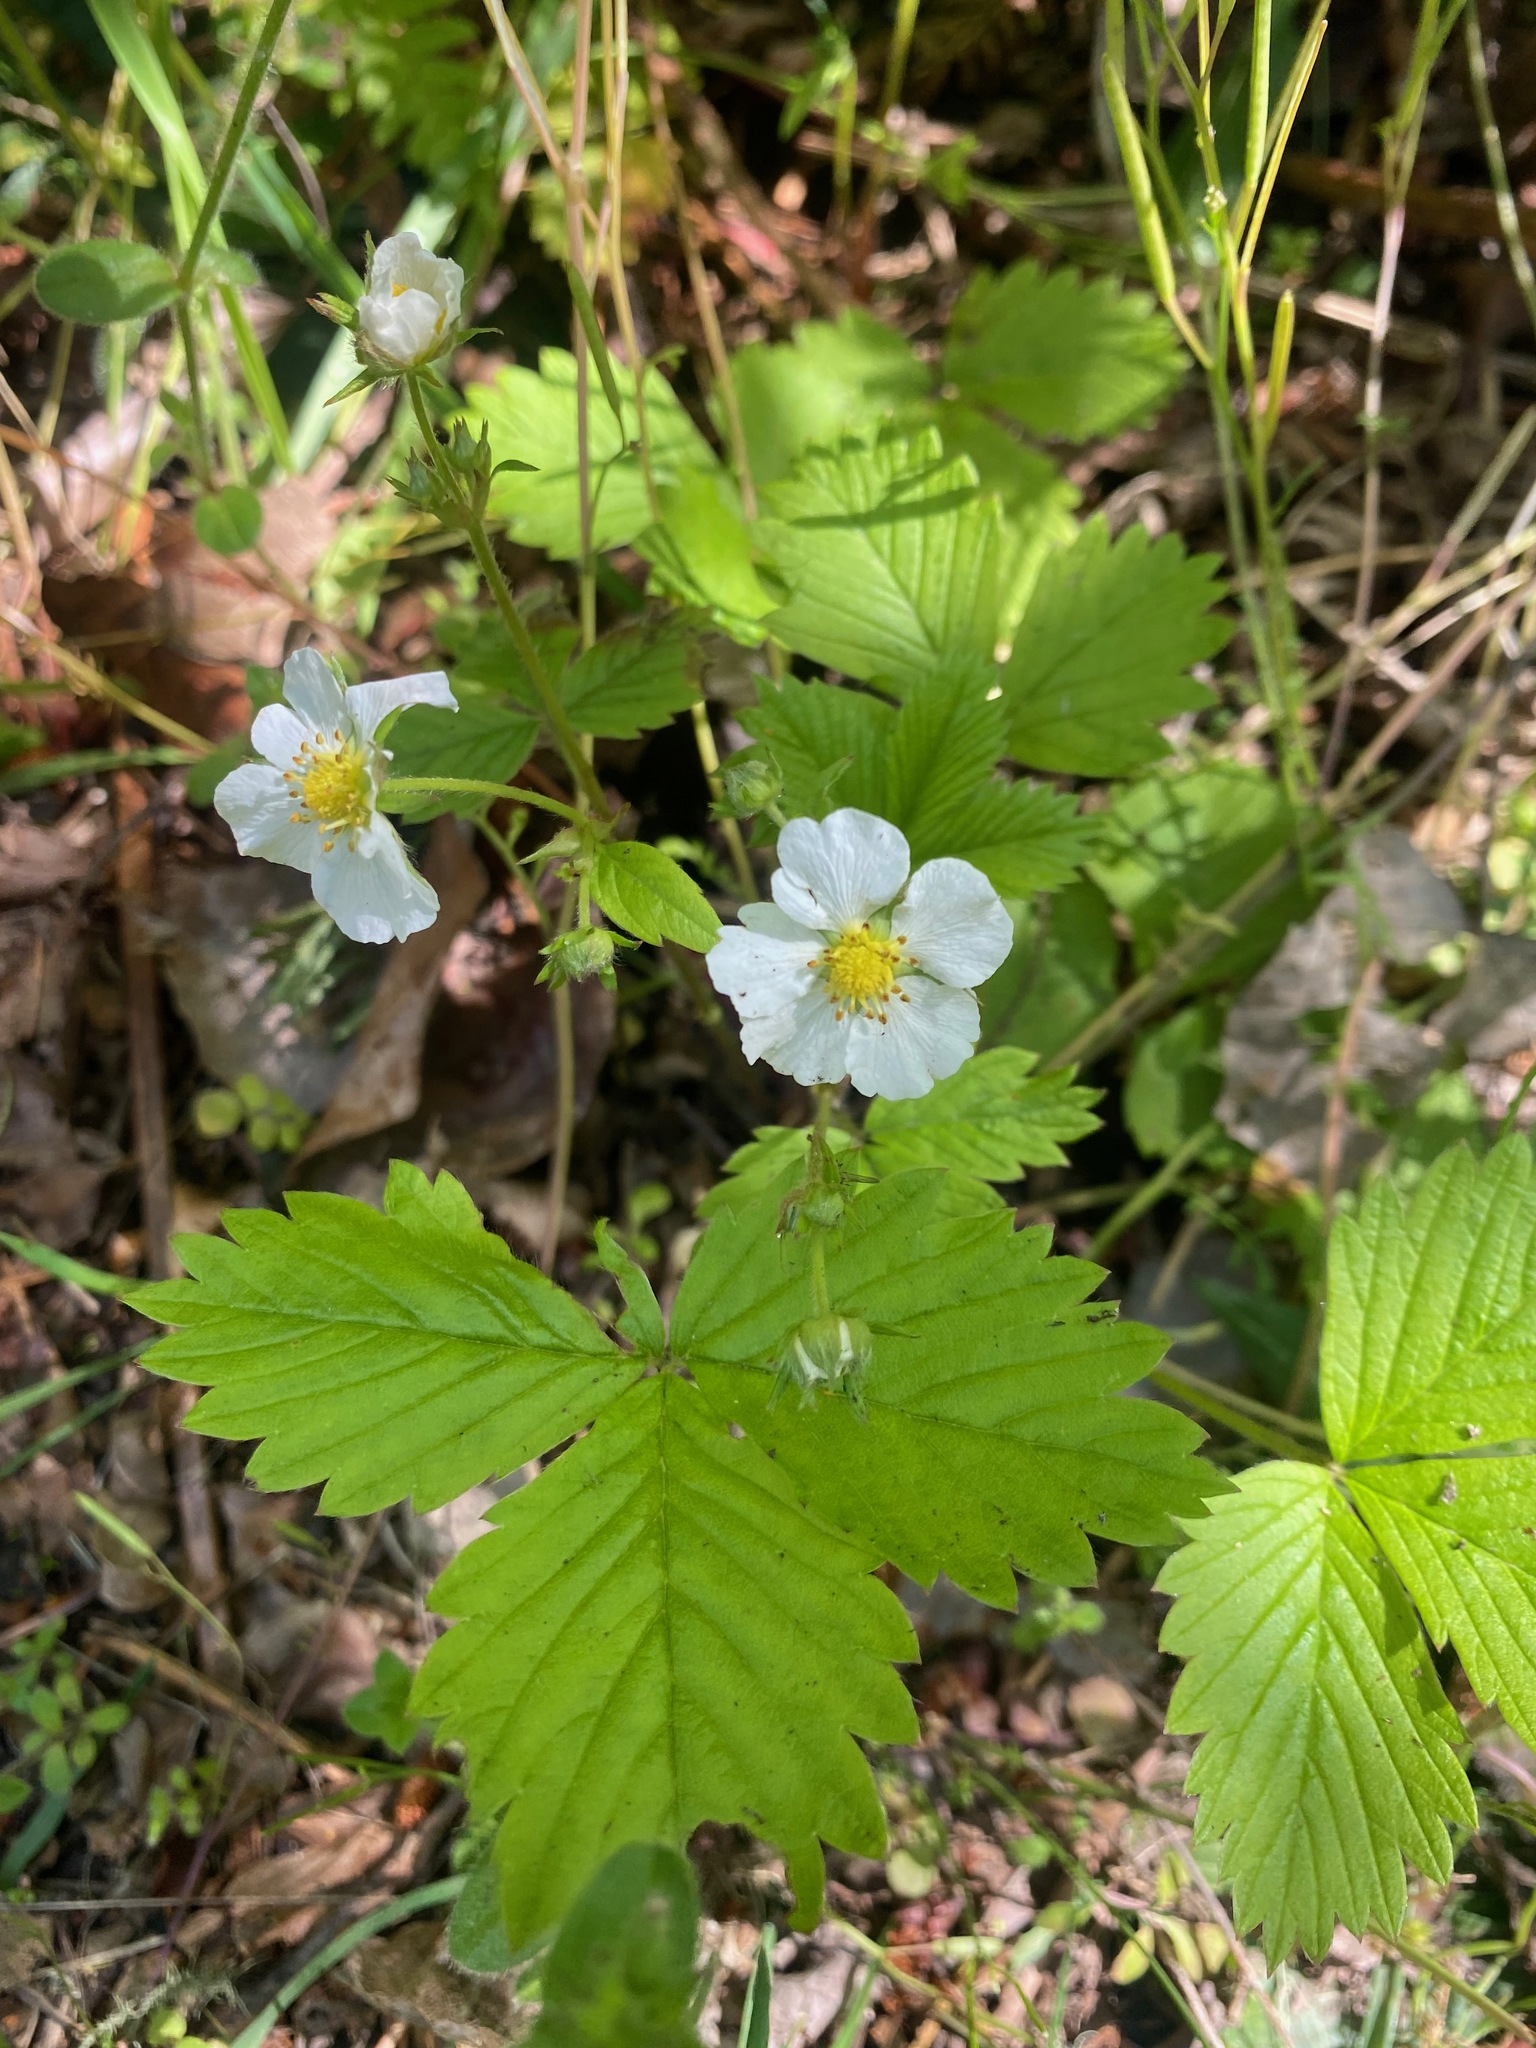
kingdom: Plantae
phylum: Tracheophyta
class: Magnoliopsida
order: Rosales
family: Rosaceae
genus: Fragaria
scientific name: Fragaria vesca
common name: Wild strawberry
